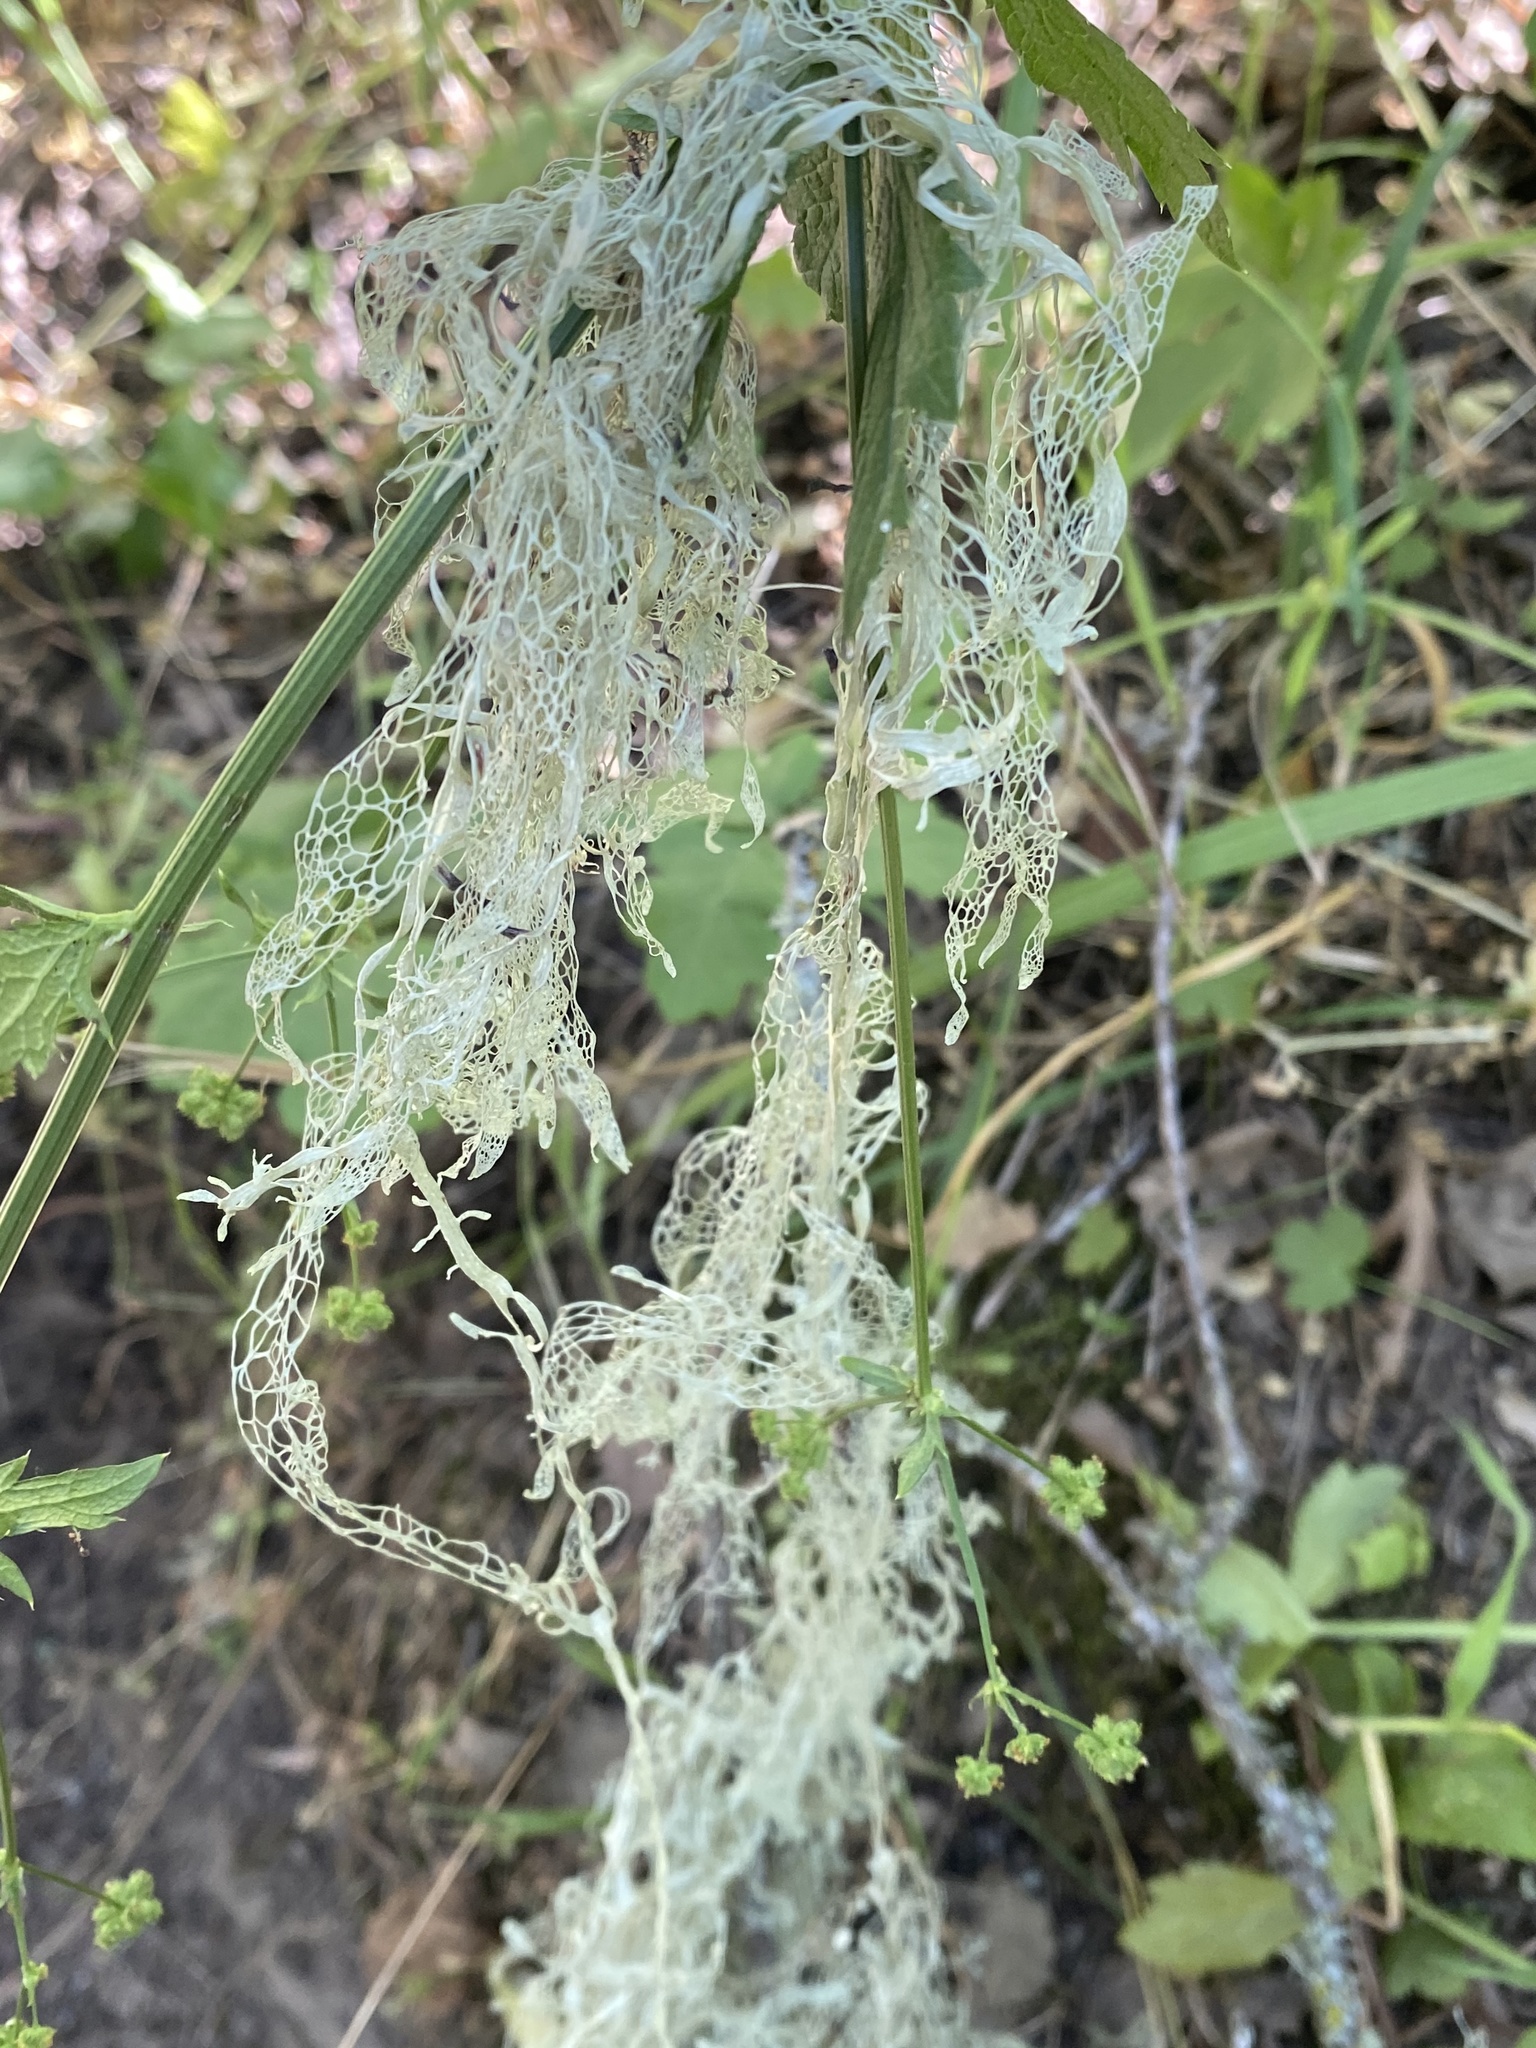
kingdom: Fungi
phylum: Ascomycota
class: Lecanoromycetes
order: Lecanorales
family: Ramalinaceae
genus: Ramalina
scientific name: Ramalina menziesii
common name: Lace lichen
